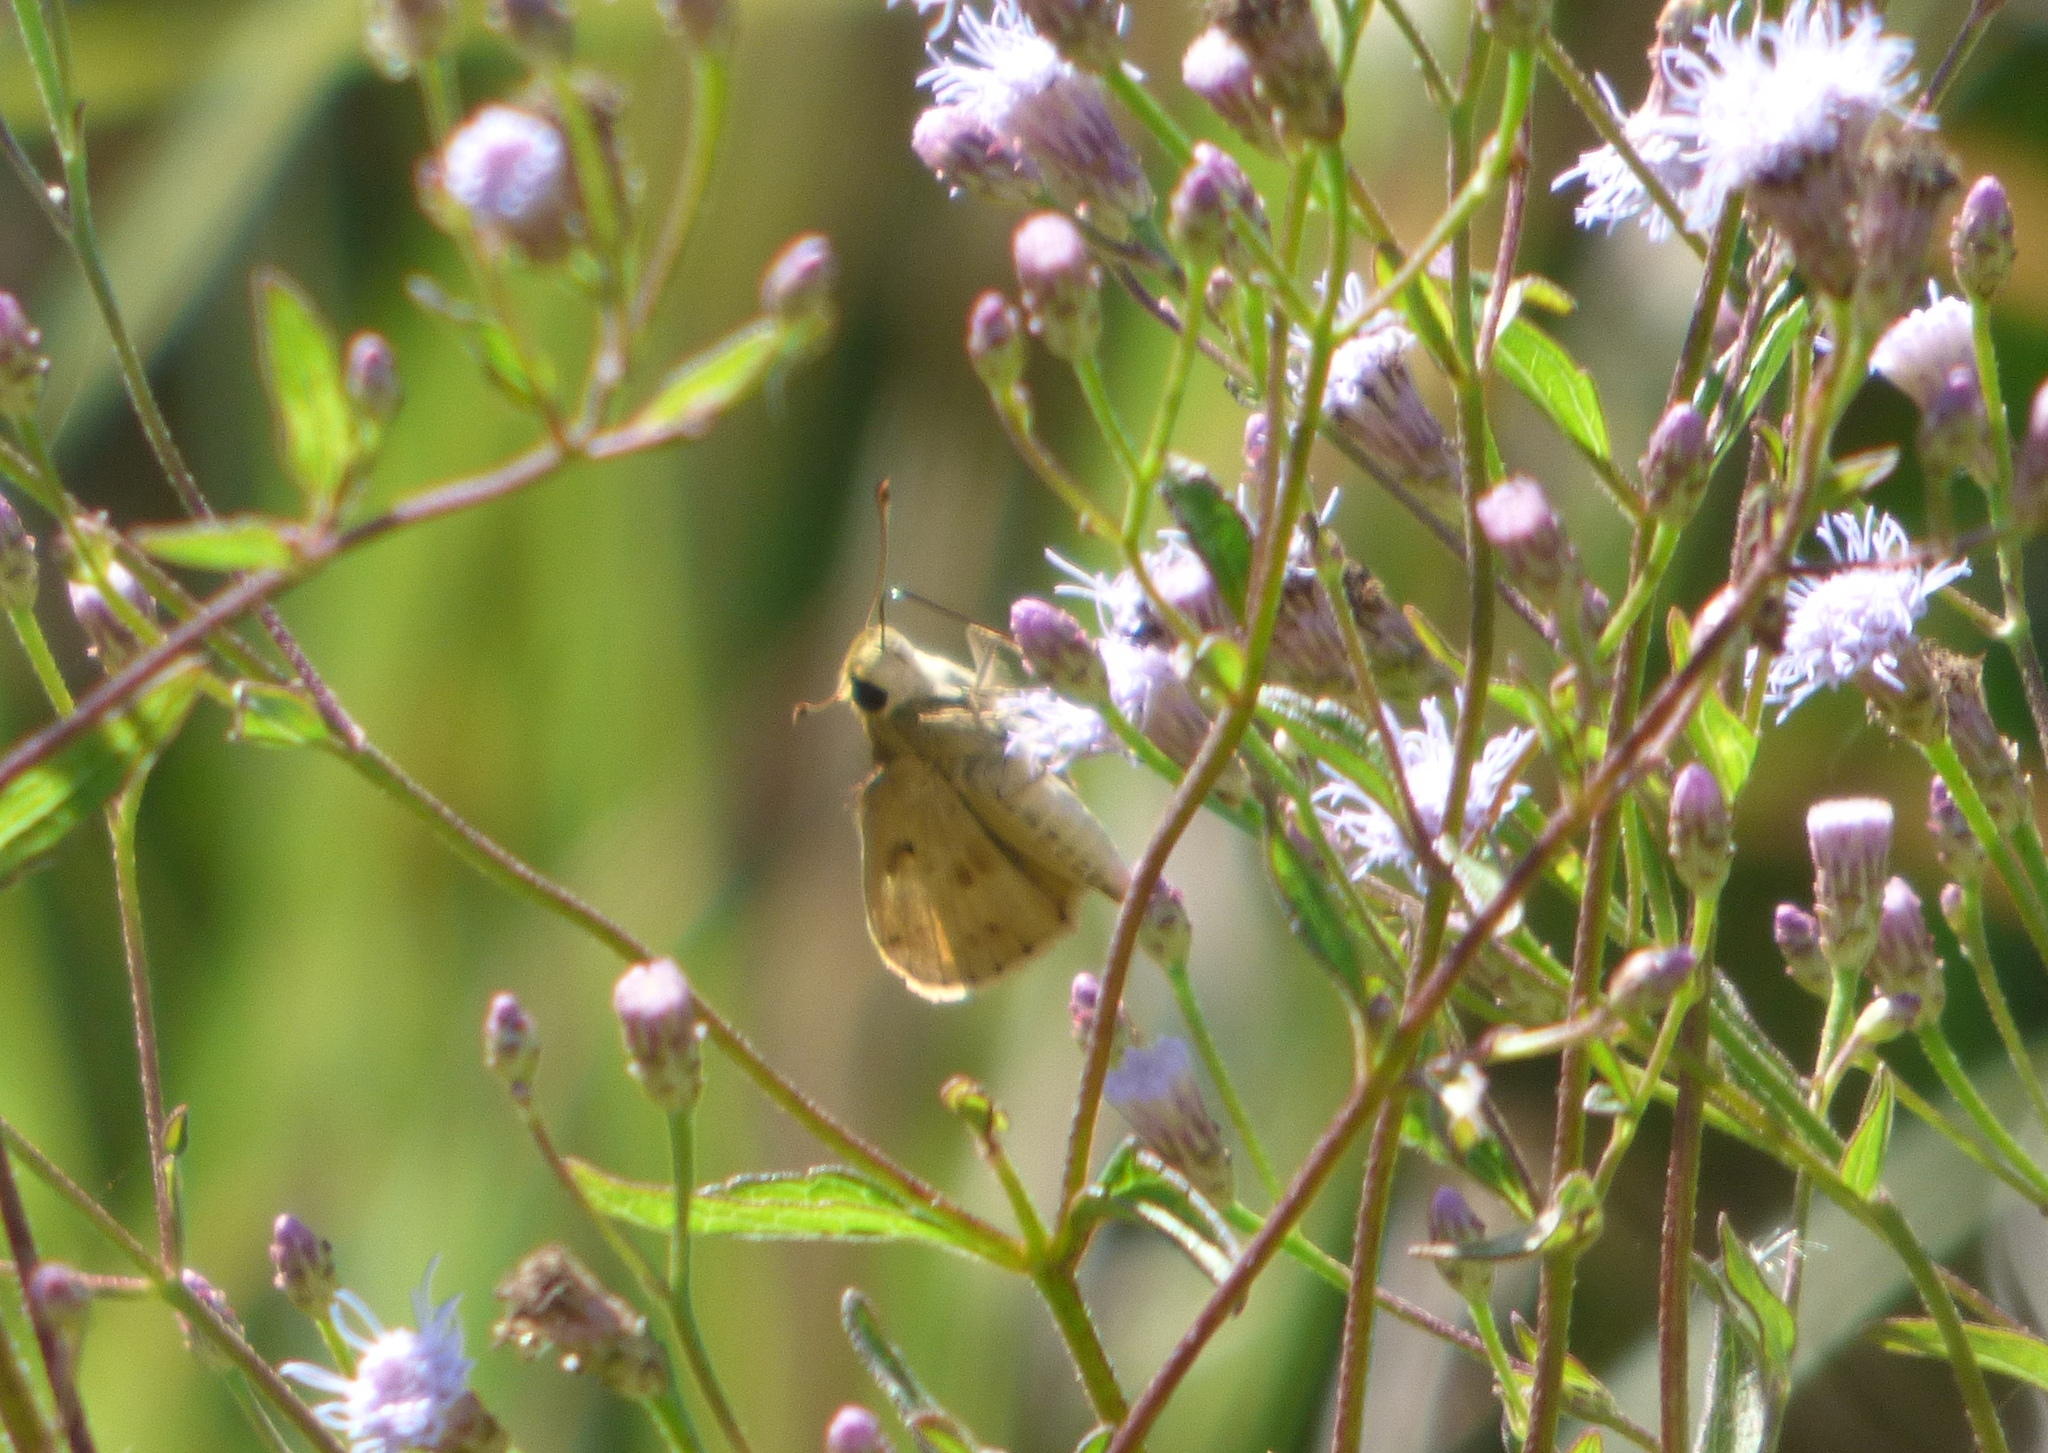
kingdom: Animalia
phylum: Arthropoda
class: Insecta
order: Lepidoptera
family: Hesperiidae
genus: Polites
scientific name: Polites vibex
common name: Whirlabout
